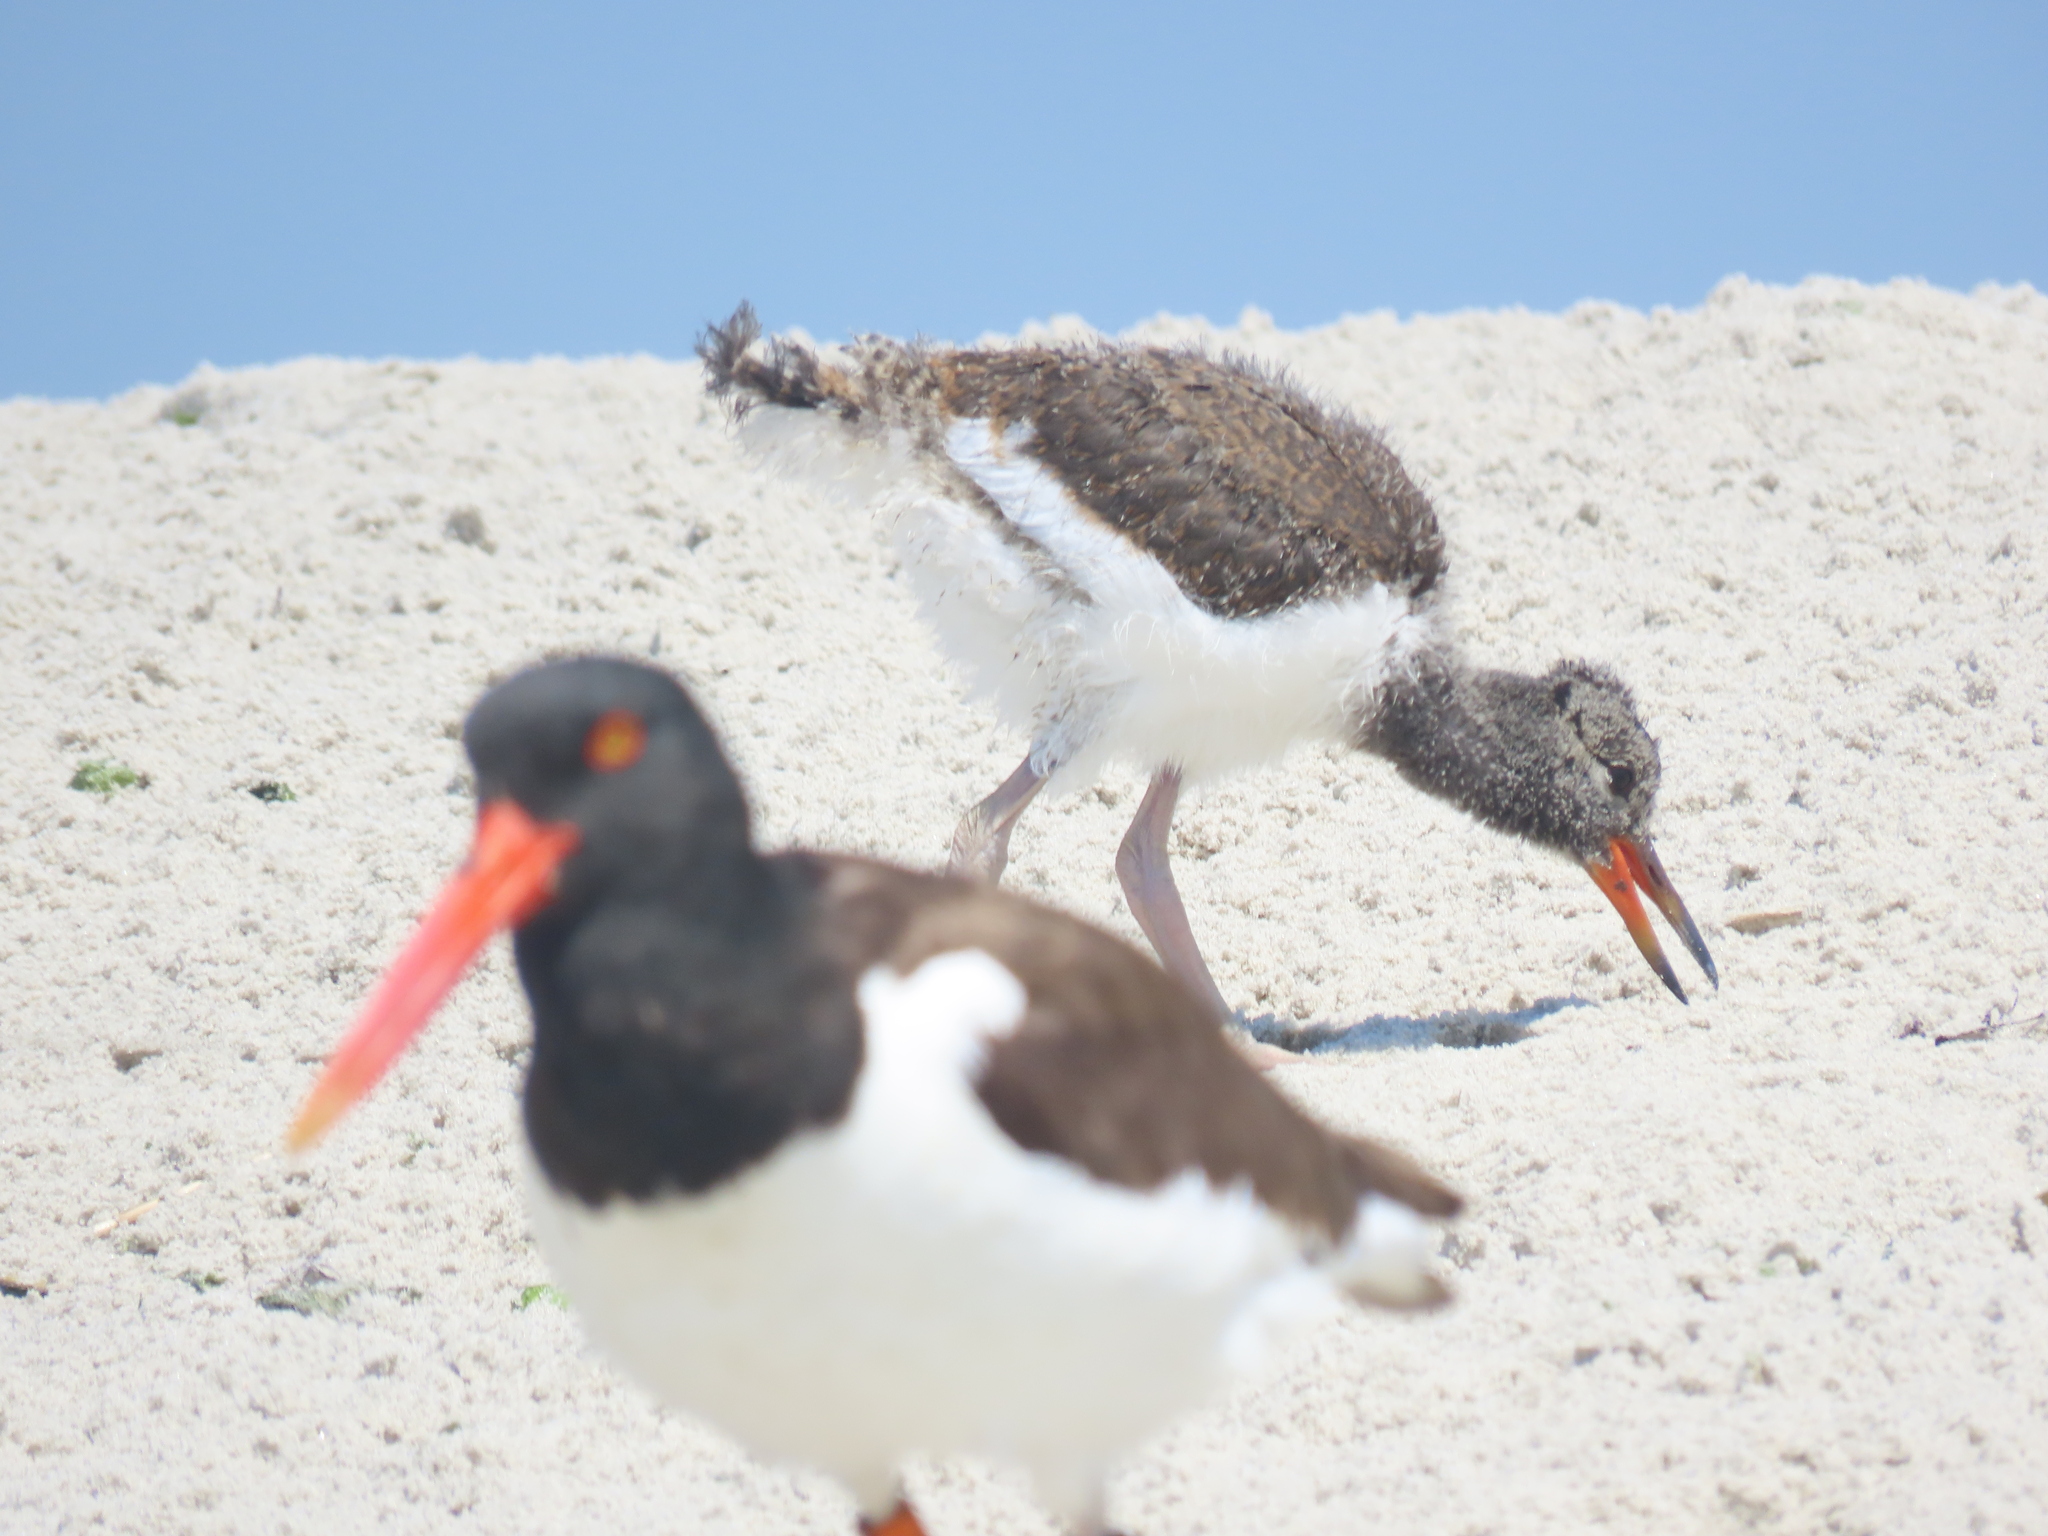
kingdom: Animalia
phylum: Chordata
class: Aves
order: Charadriiformes
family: Haematopodidae
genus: Haematopus
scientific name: Haematopus palliatus
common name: American oystercatcher
